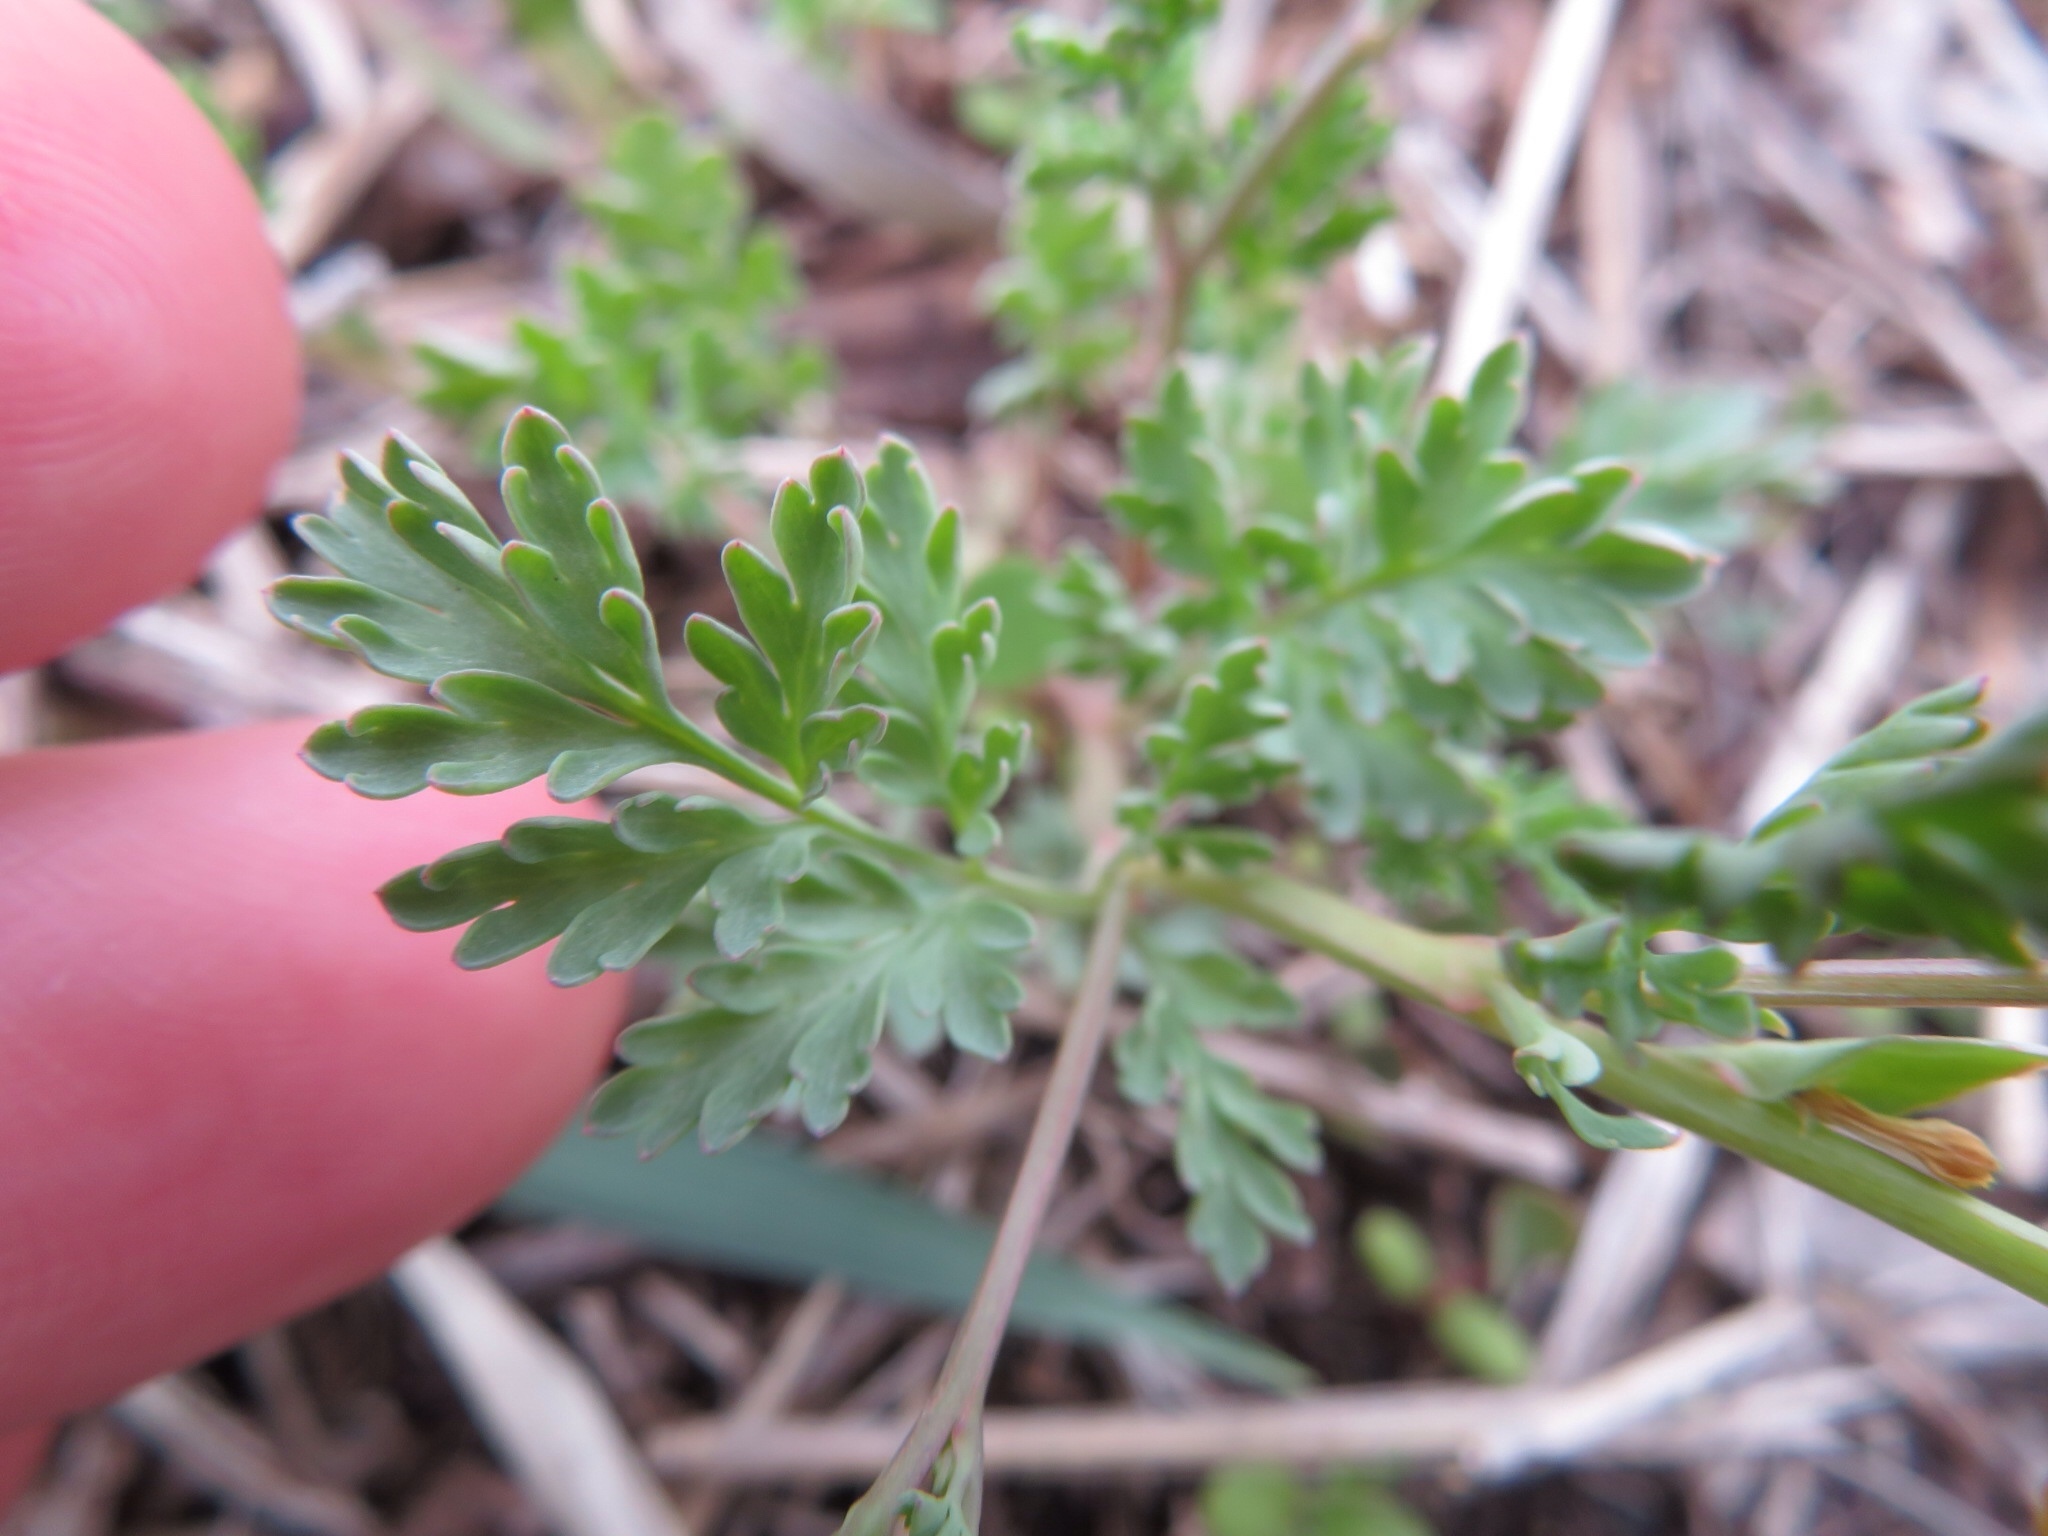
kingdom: Plantae
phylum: Tracheophyta
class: Magnoliopsida
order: Ranunculales
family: Papaveraceae
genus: Corydalis
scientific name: Corydalis aurea
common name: Golden corydalis
